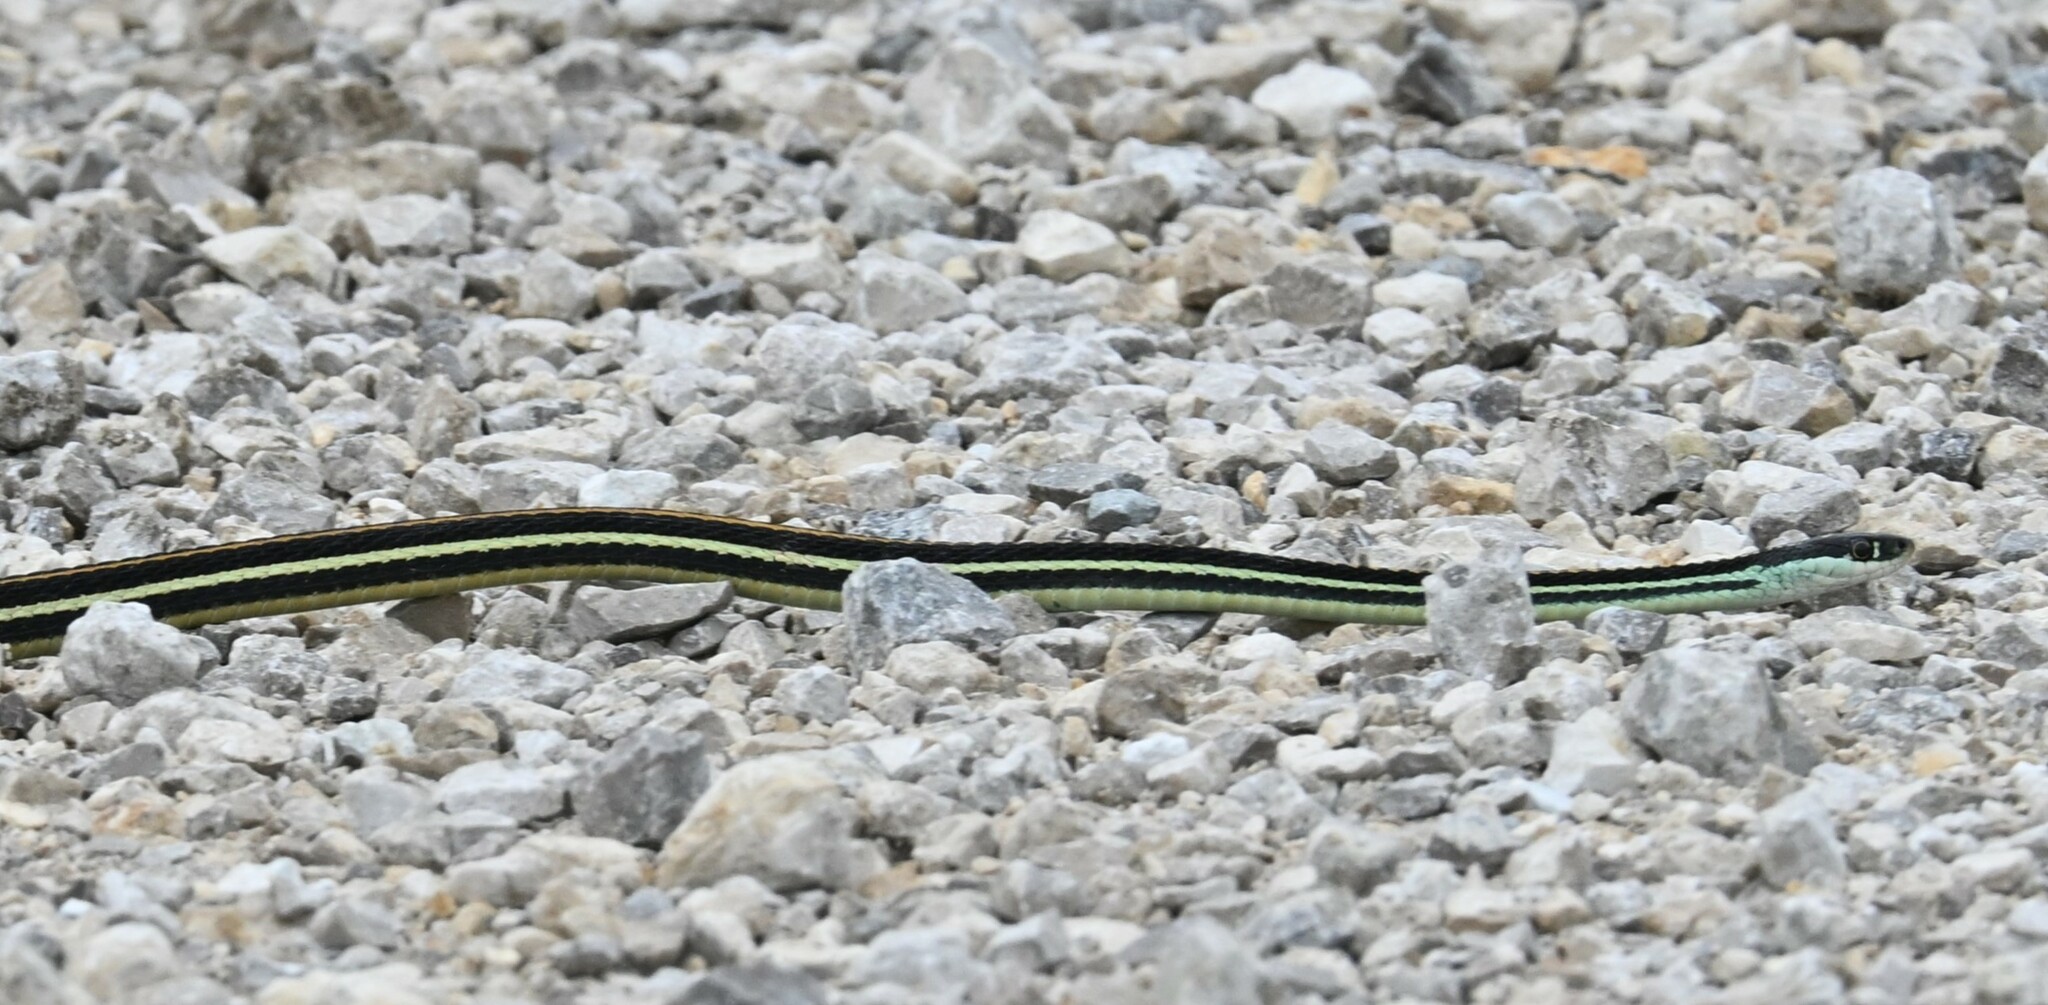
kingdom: Animalia
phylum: Chordata
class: Squamata
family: Colubridae
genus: Thamnophis
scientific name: Thamnophis proximus
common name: Western ribbon snake
